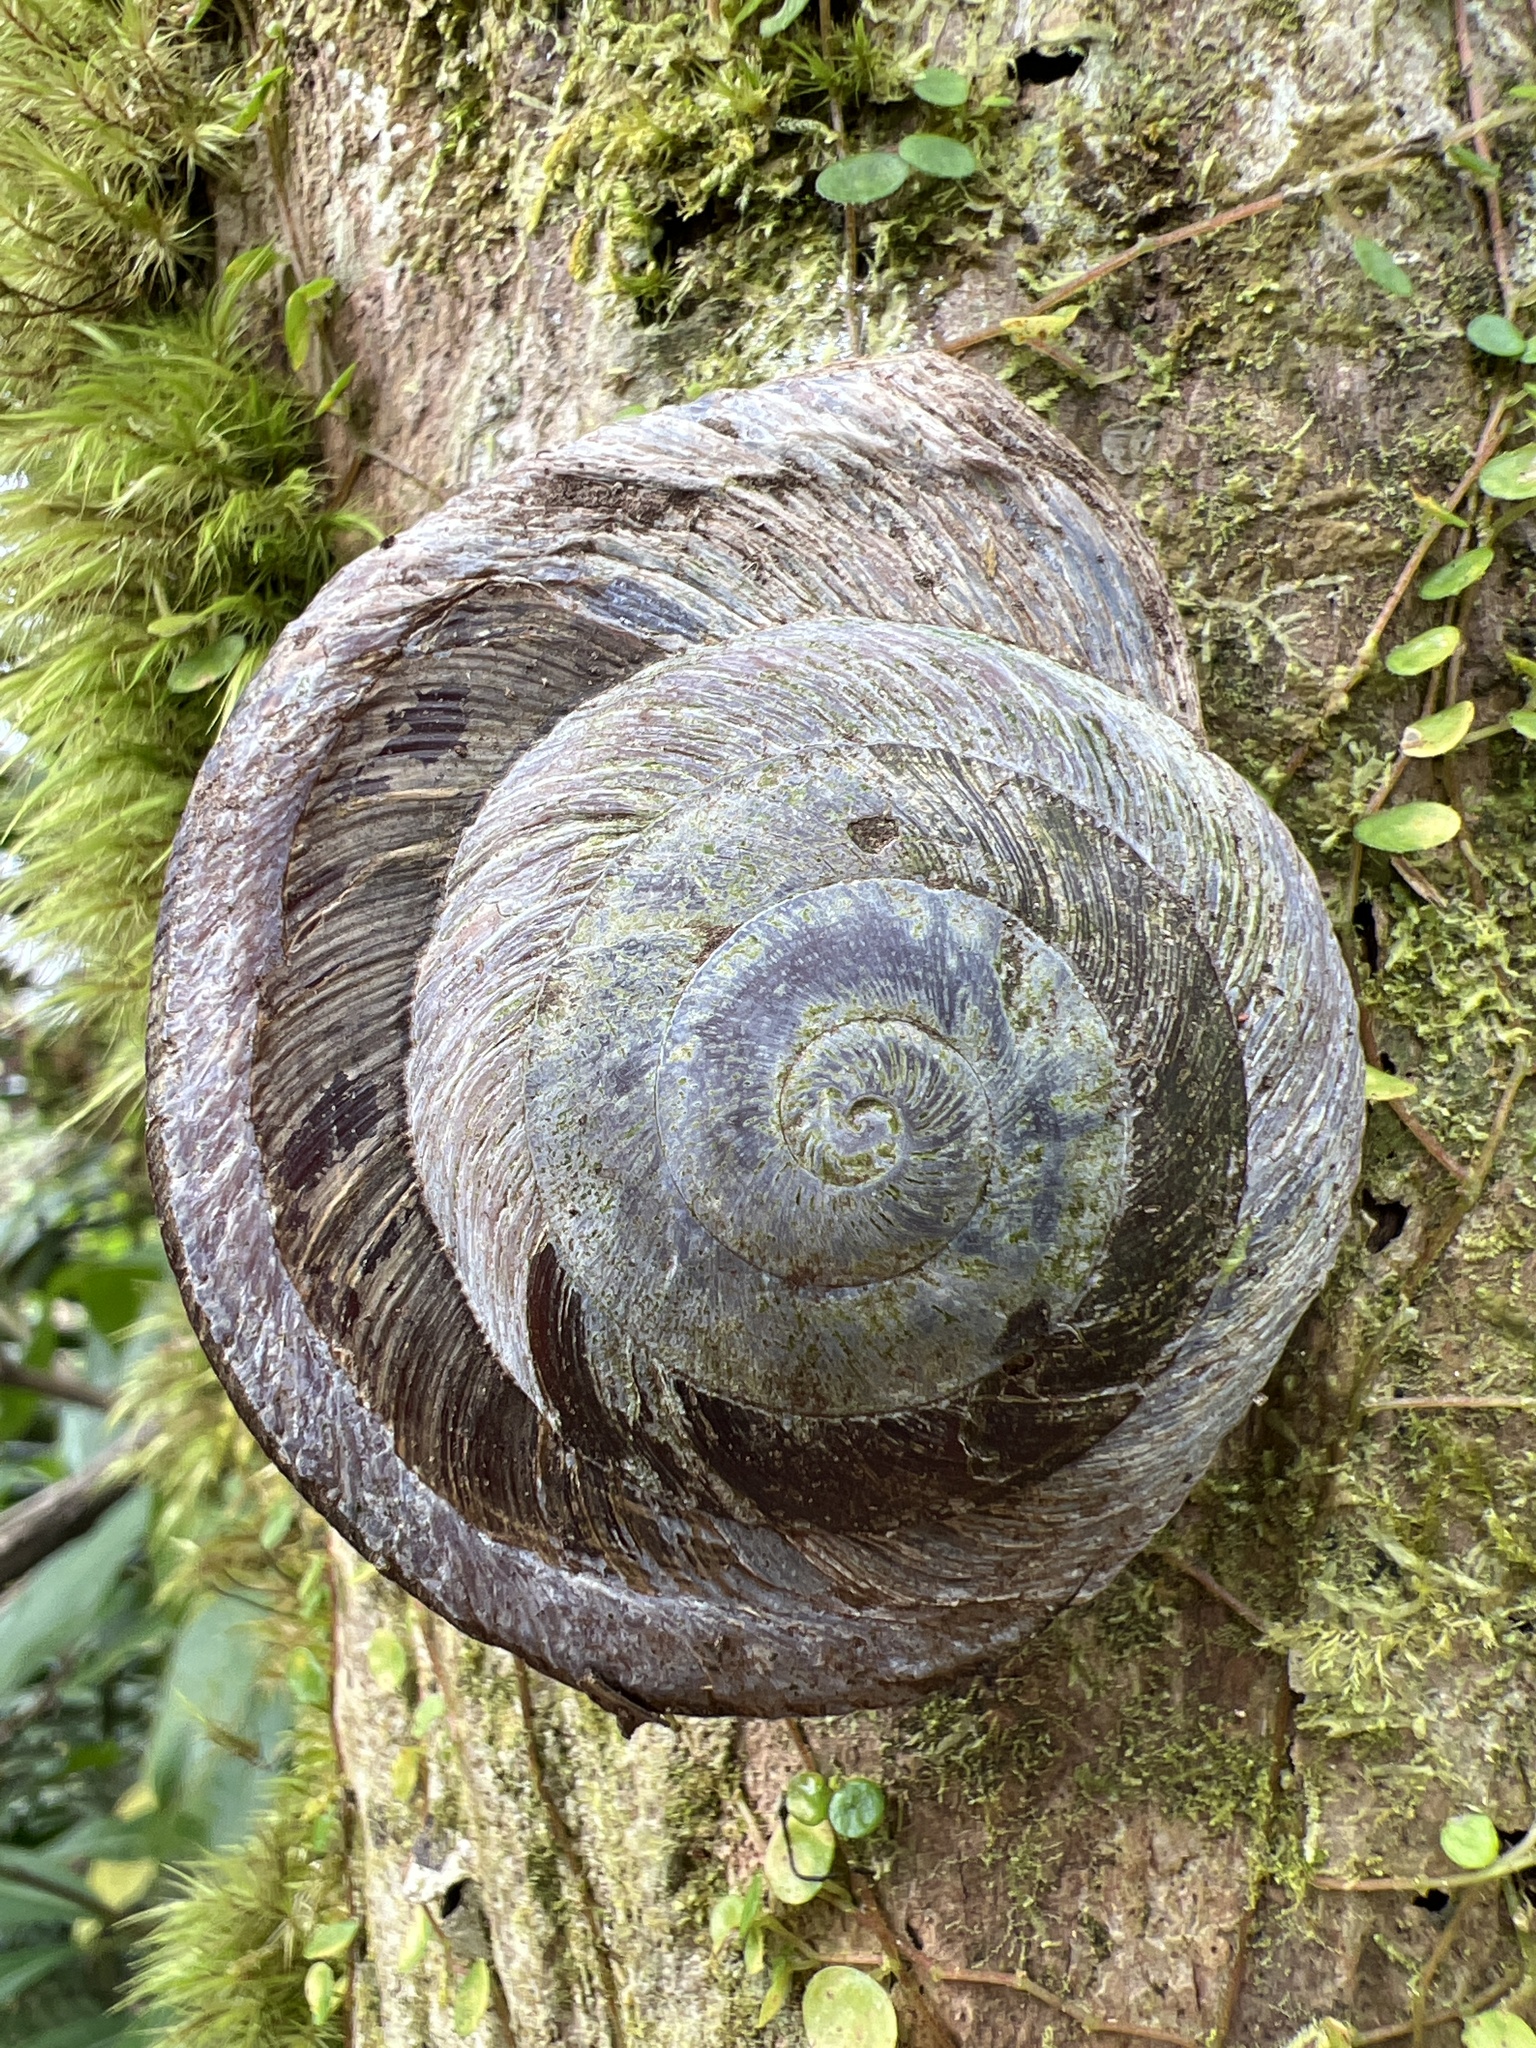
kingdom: Animalia
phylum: Mollusca
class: Gastropoda
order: Stylommatophora
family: Solaropsidae
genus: Caracolus
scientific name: Caracolus carocolla
